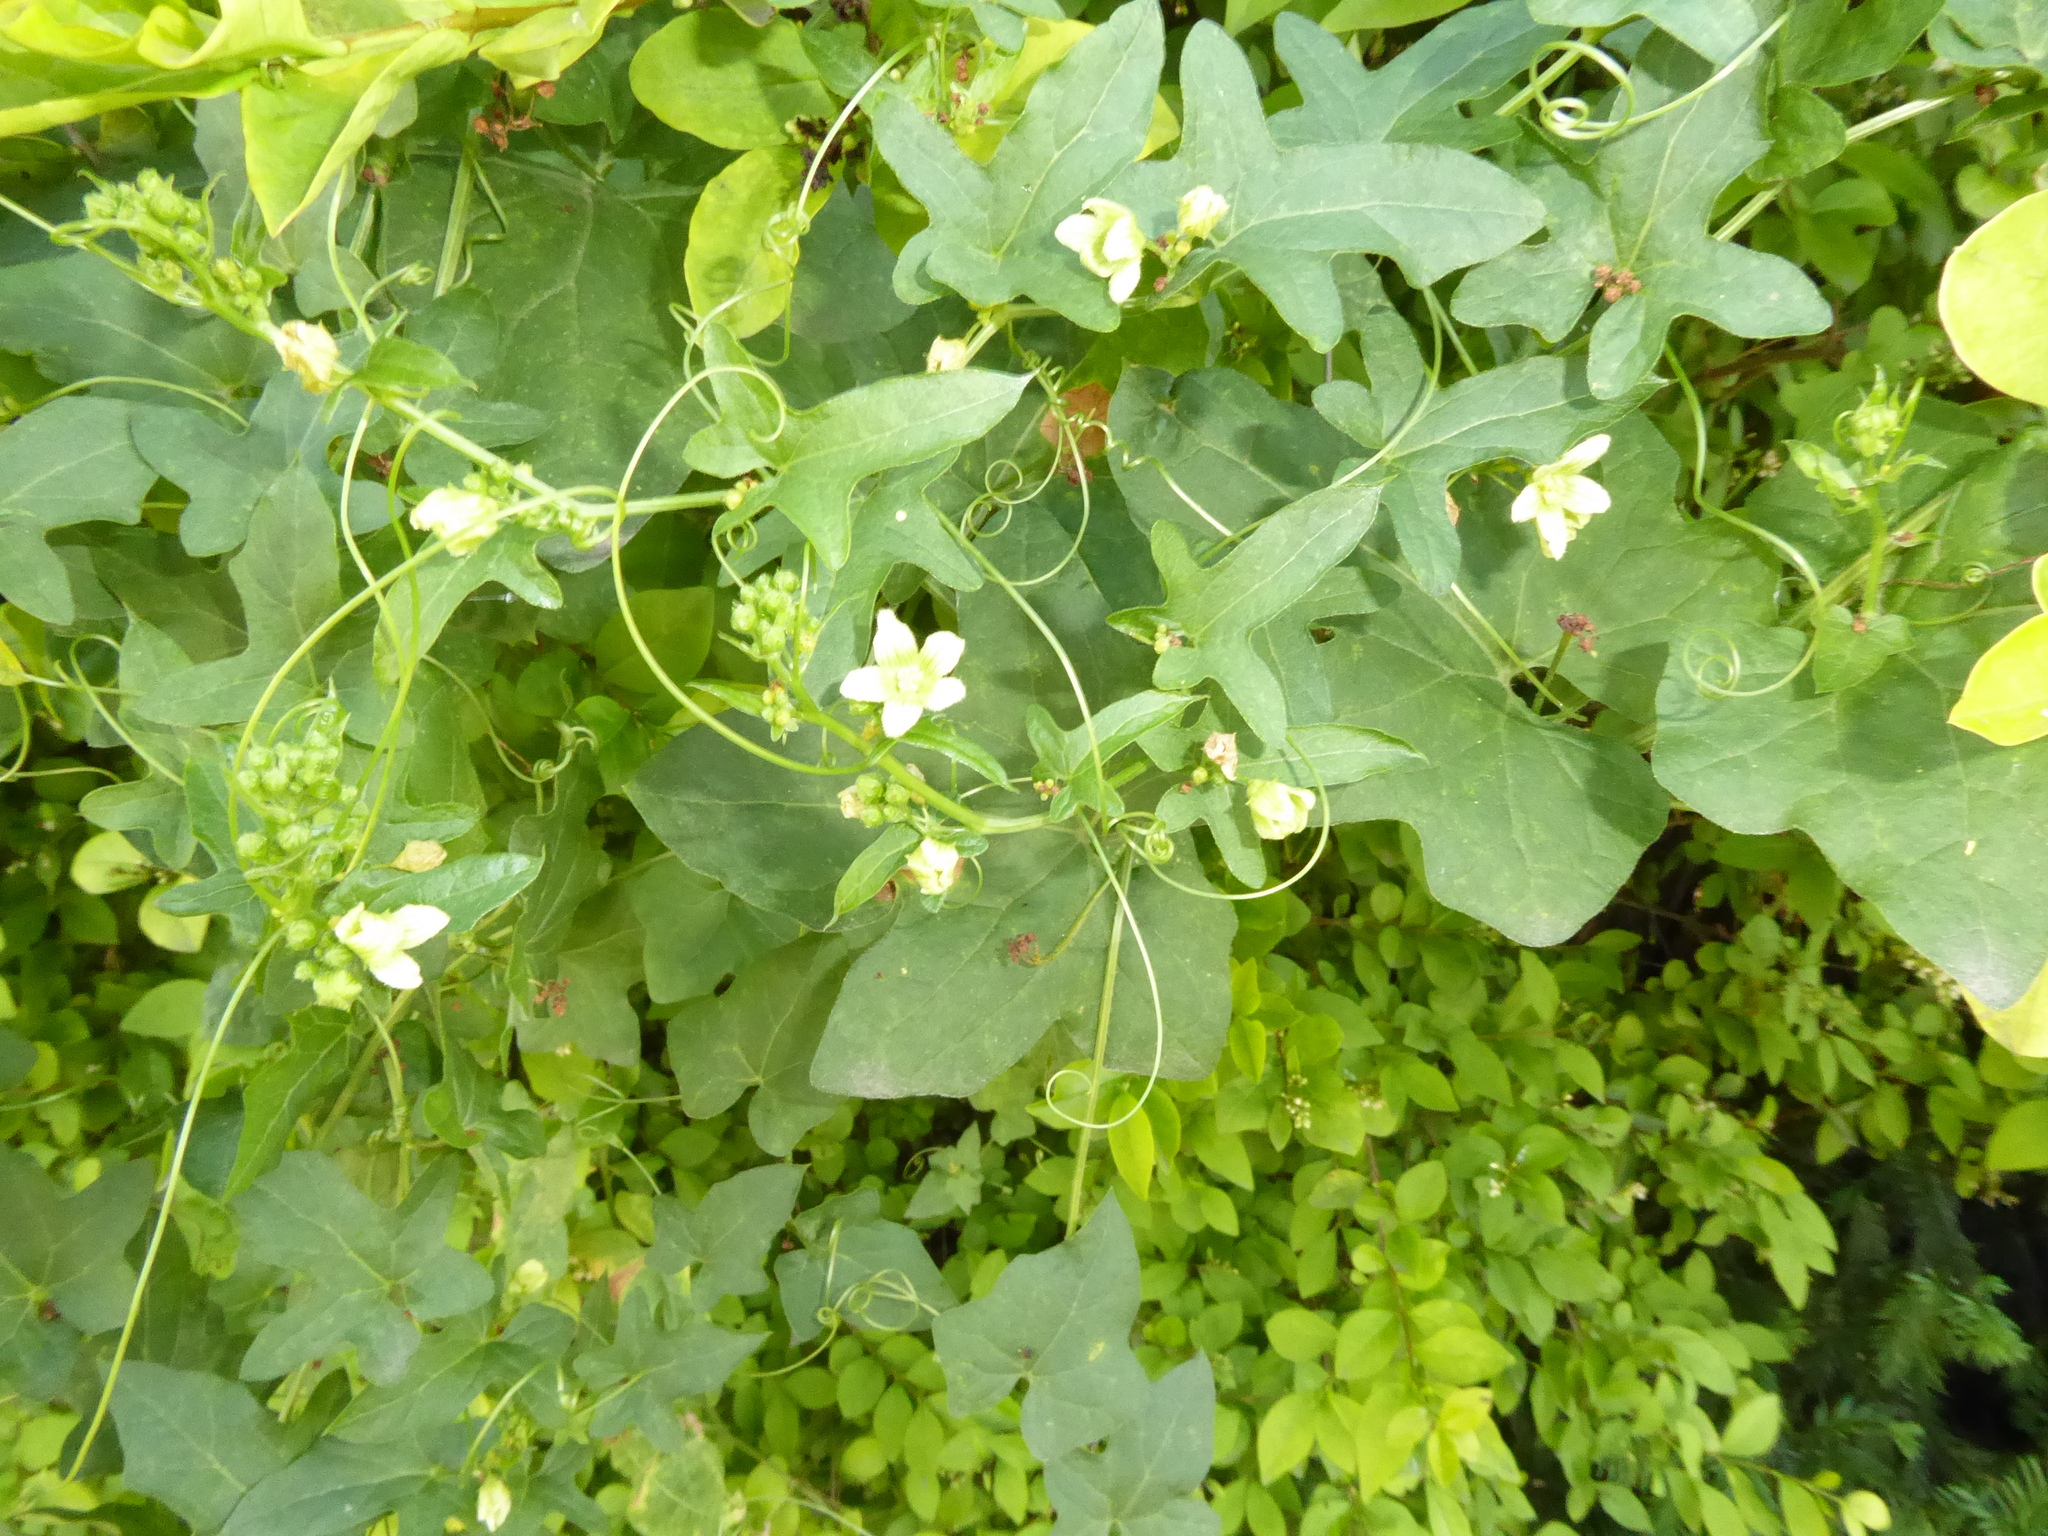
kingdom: Plantae
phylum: Tracheophyta
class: Magnoliopsida
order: Cucurbitales
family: Cucurbitaceae
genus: Bryonia
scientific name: Bryonia cretica
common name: Cretan bryony
